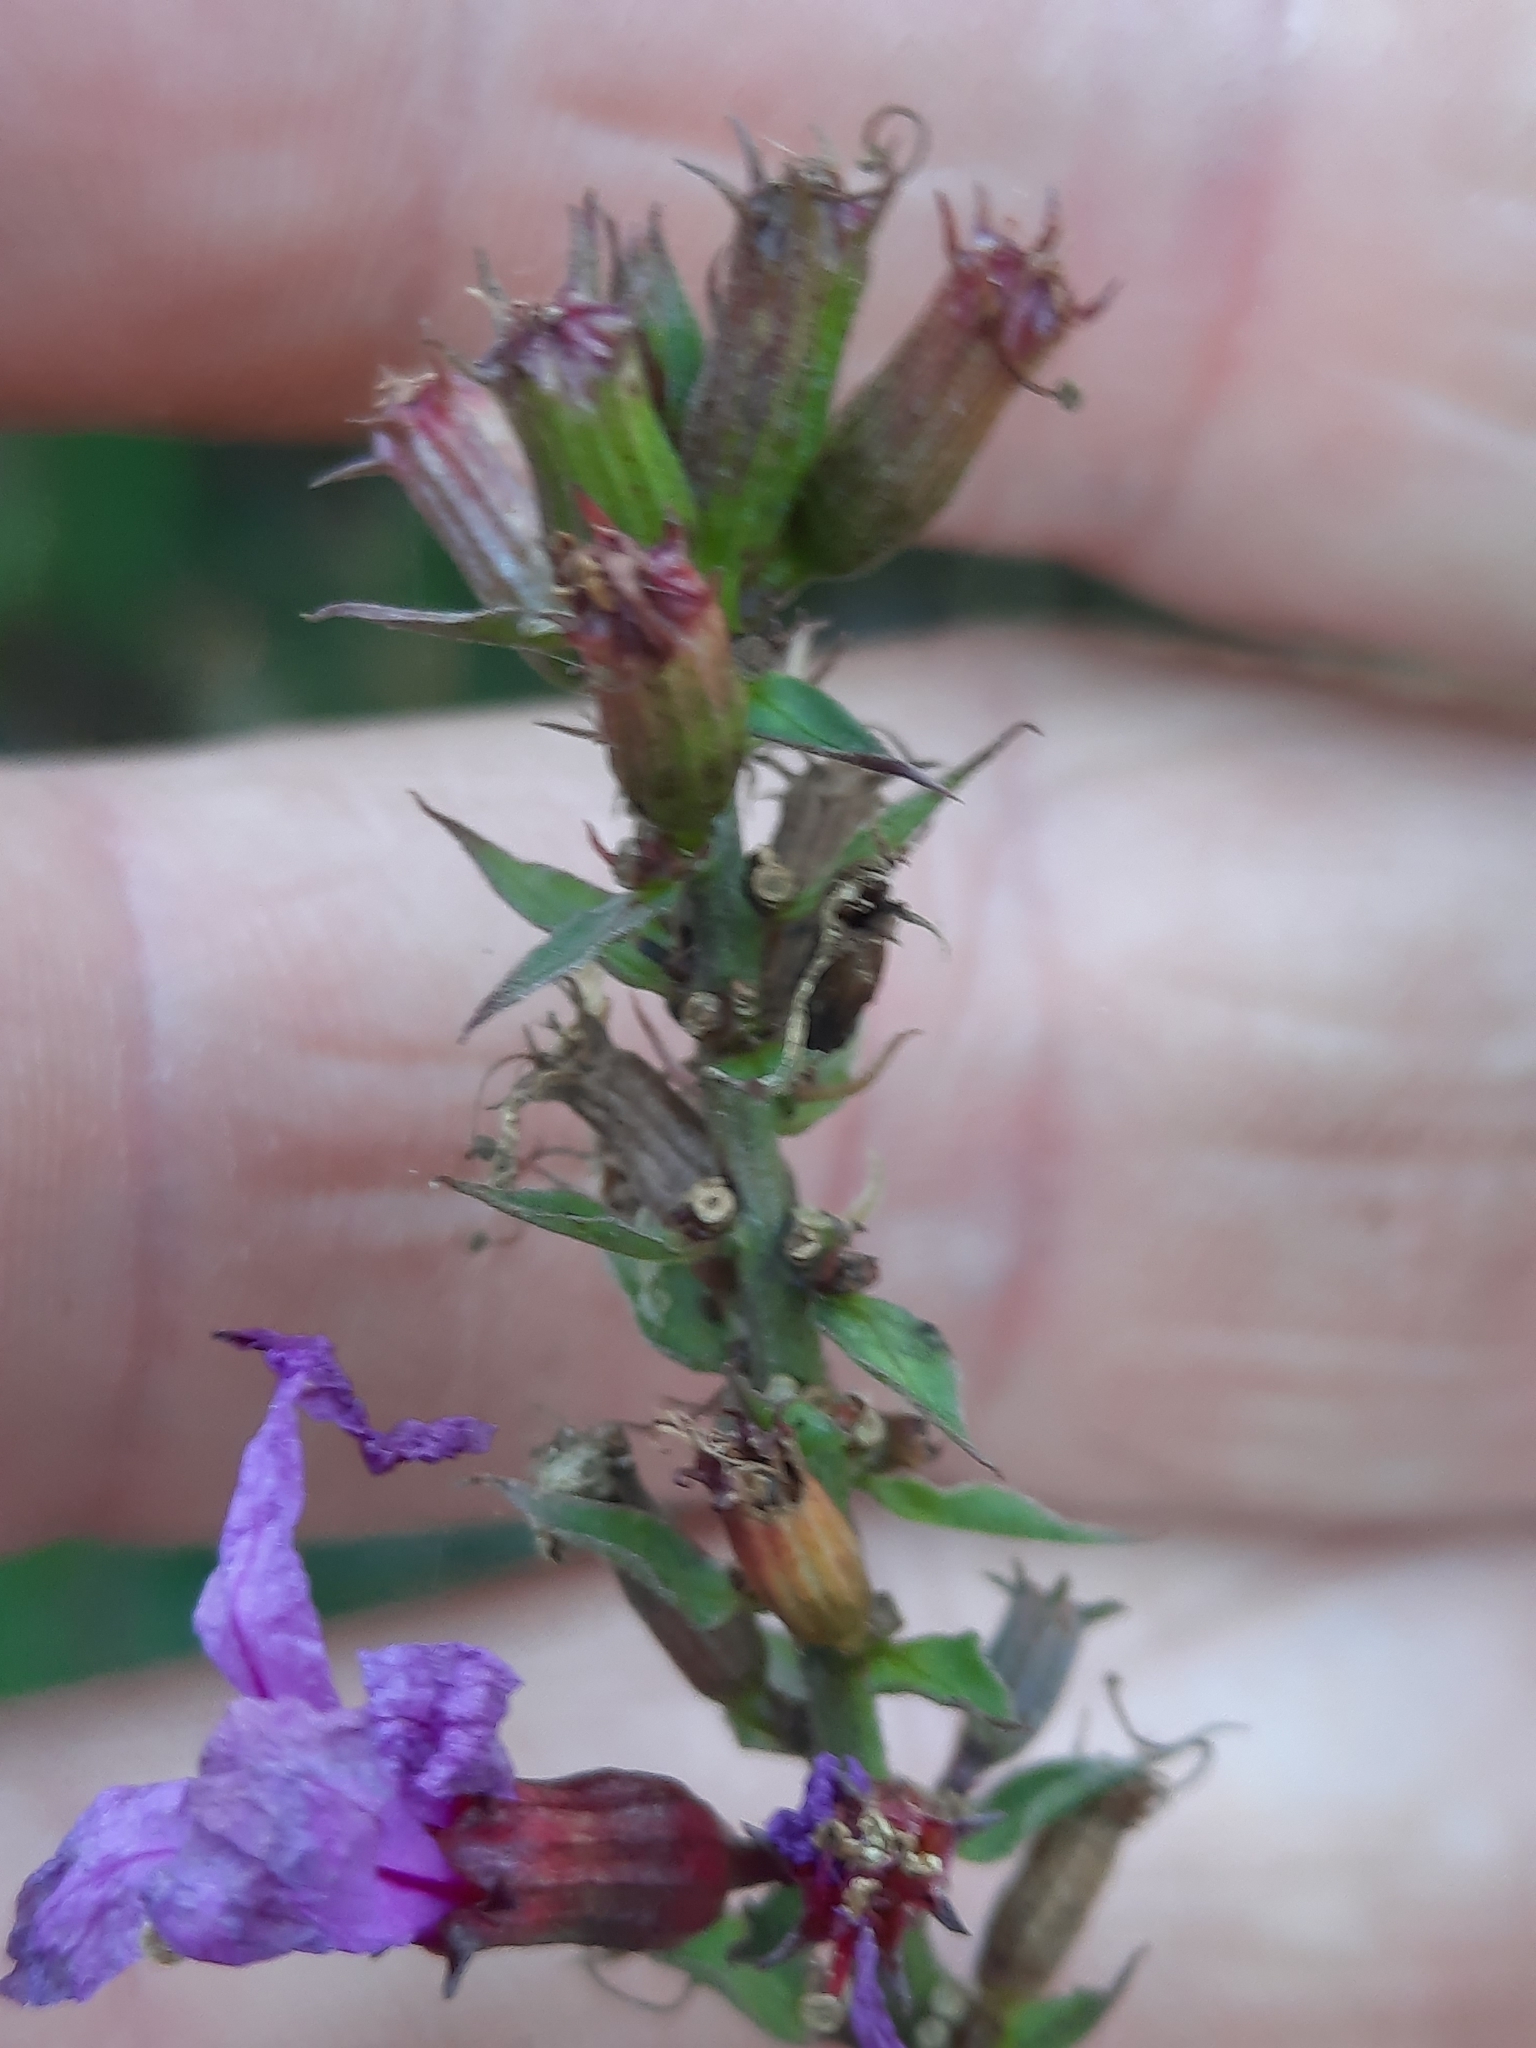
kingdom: Plantae
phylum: Tracheophyta
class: Magnoliopsida
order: Myrtales
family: Lythraceae
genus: Lythrum
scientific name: Lythrum salicaria
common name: Purple loosestrife
